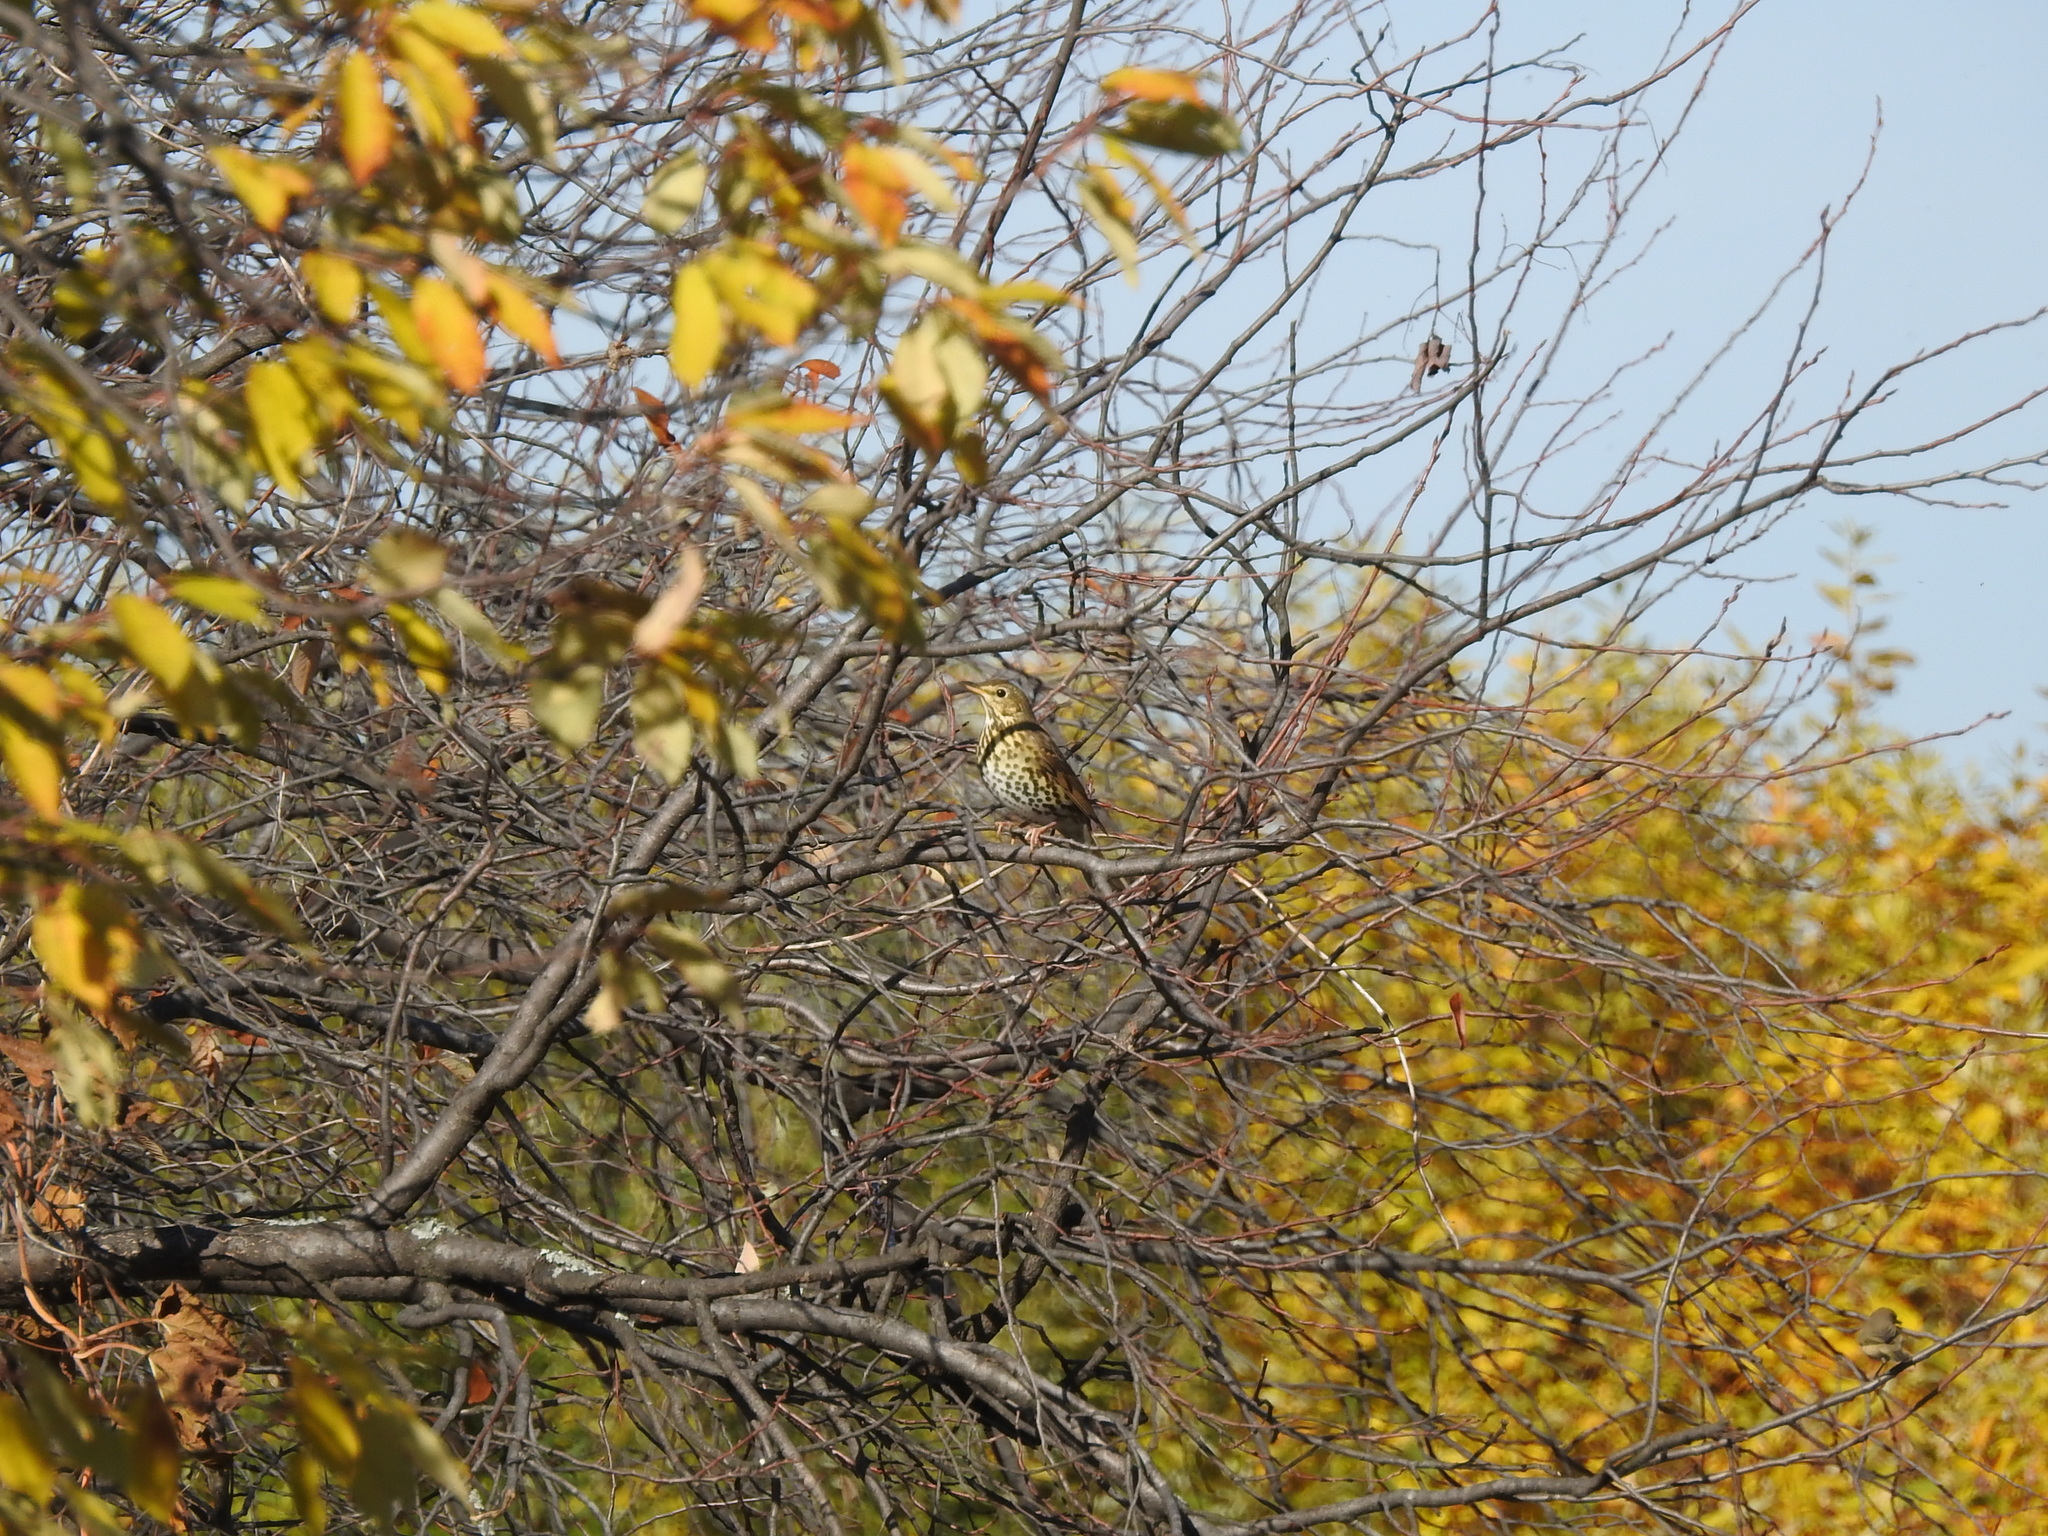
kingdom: Animalia
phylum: Chordata
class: Aves
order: Passeriformes
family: Turdidae
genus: Turdus
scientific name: Turdus philomelos
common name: Song thrush
